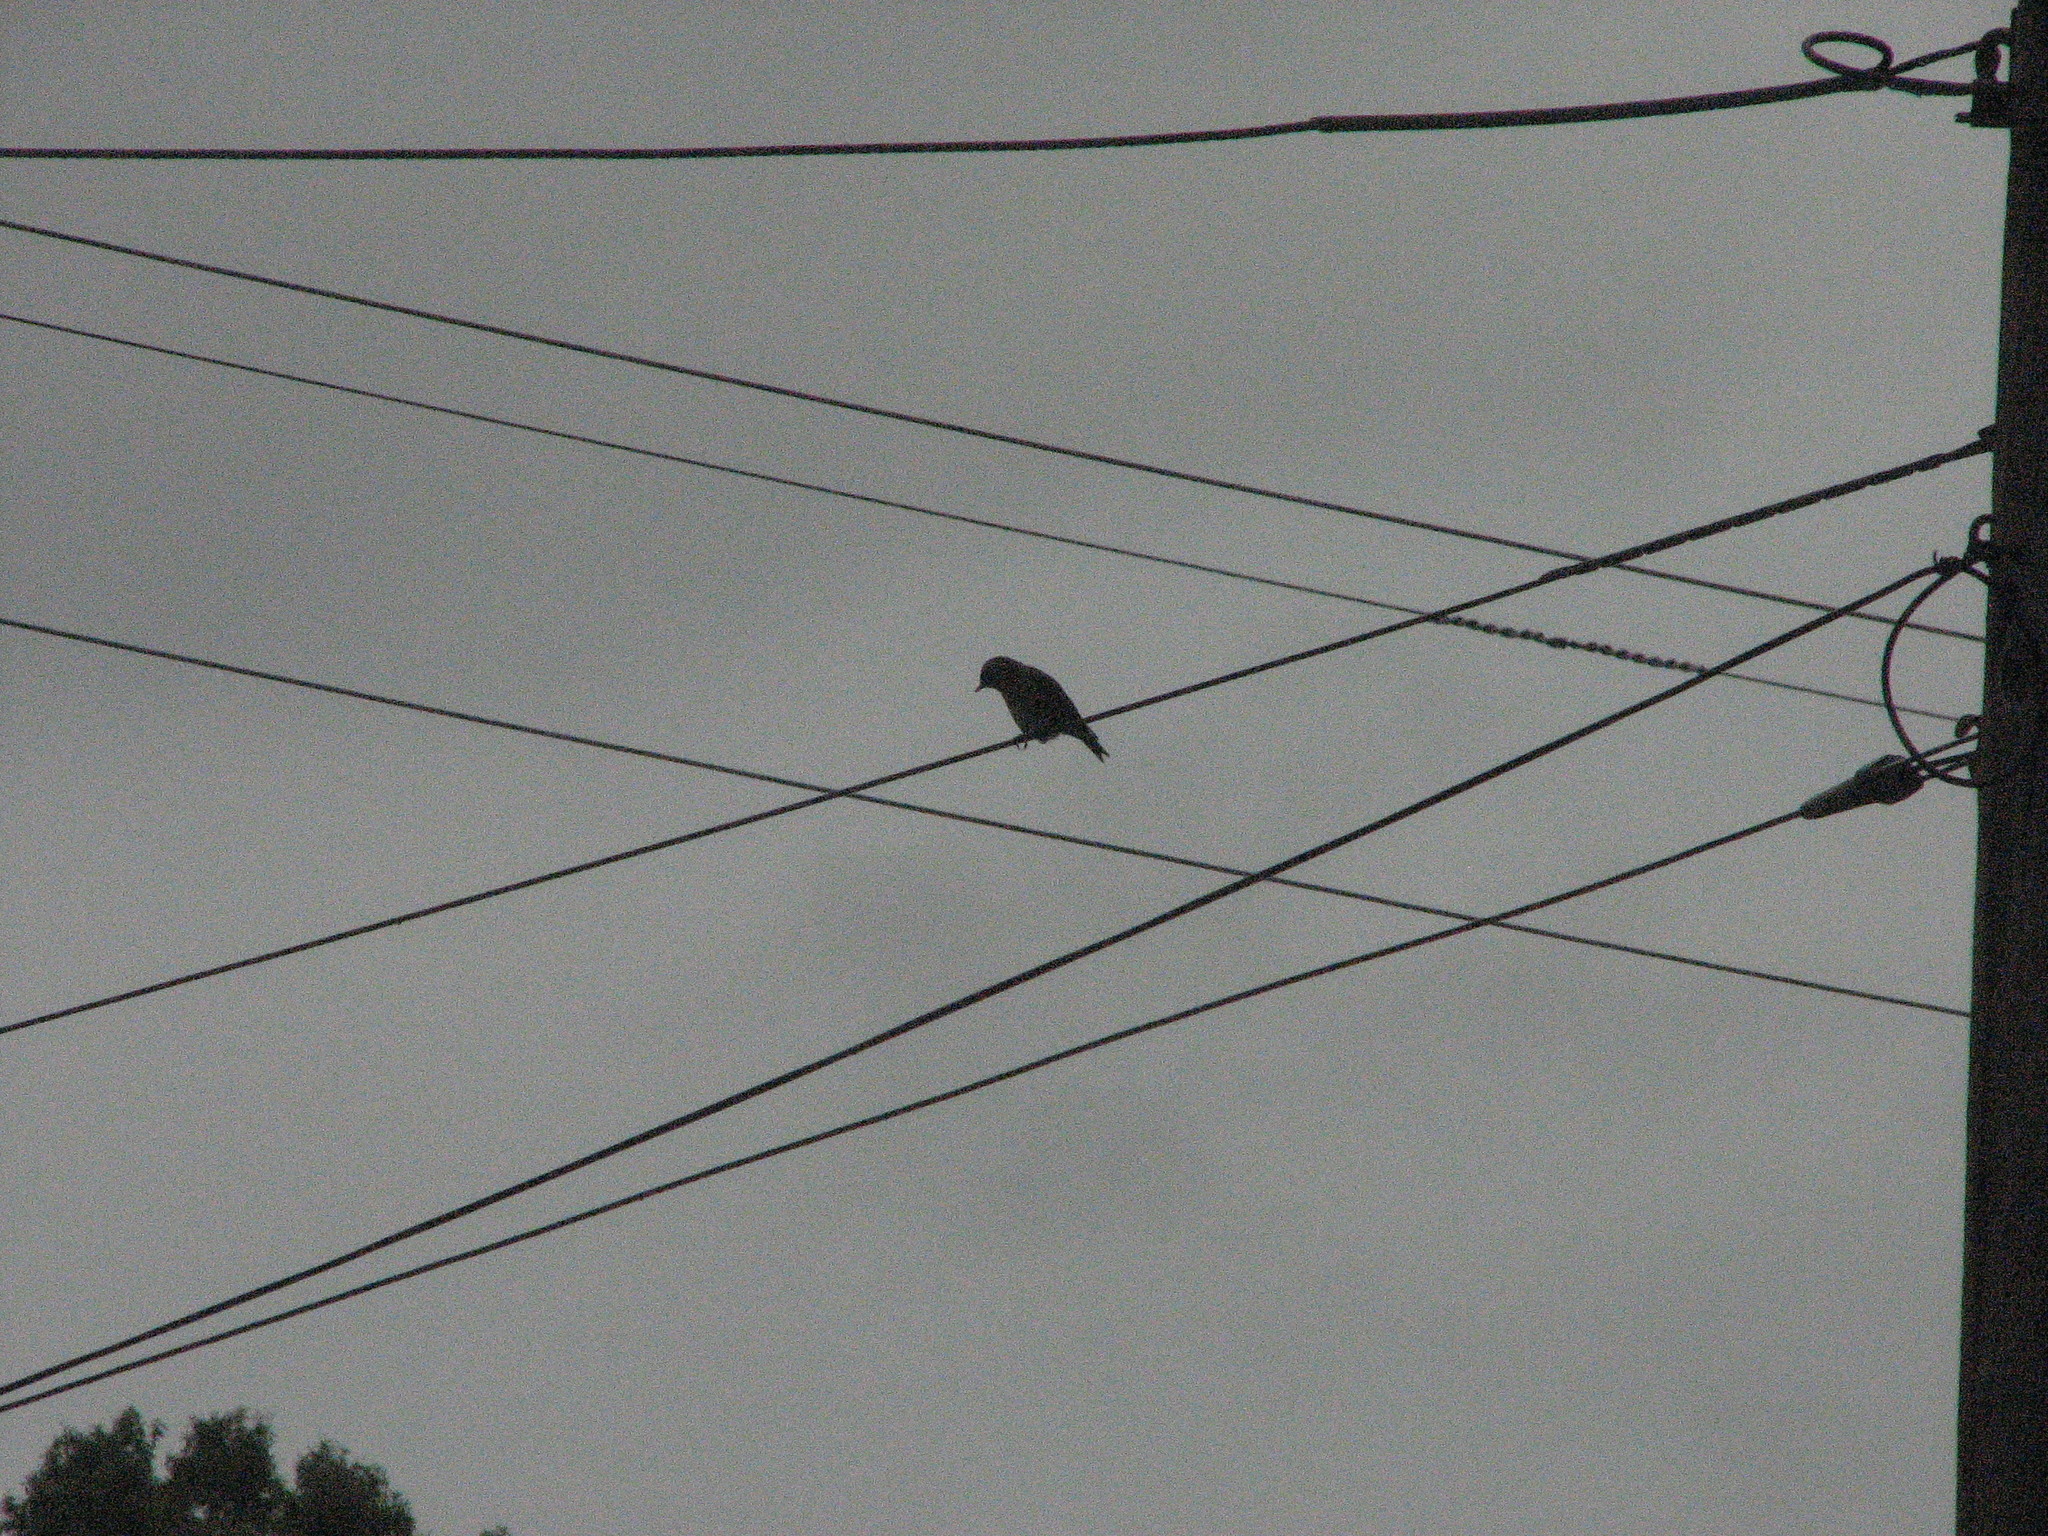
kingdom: Animalia
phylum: Chordata
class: Aves
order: Passeriformes
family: Turdidae
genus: Sialia
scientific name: Sialia sialis
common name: Eastern bluebird
